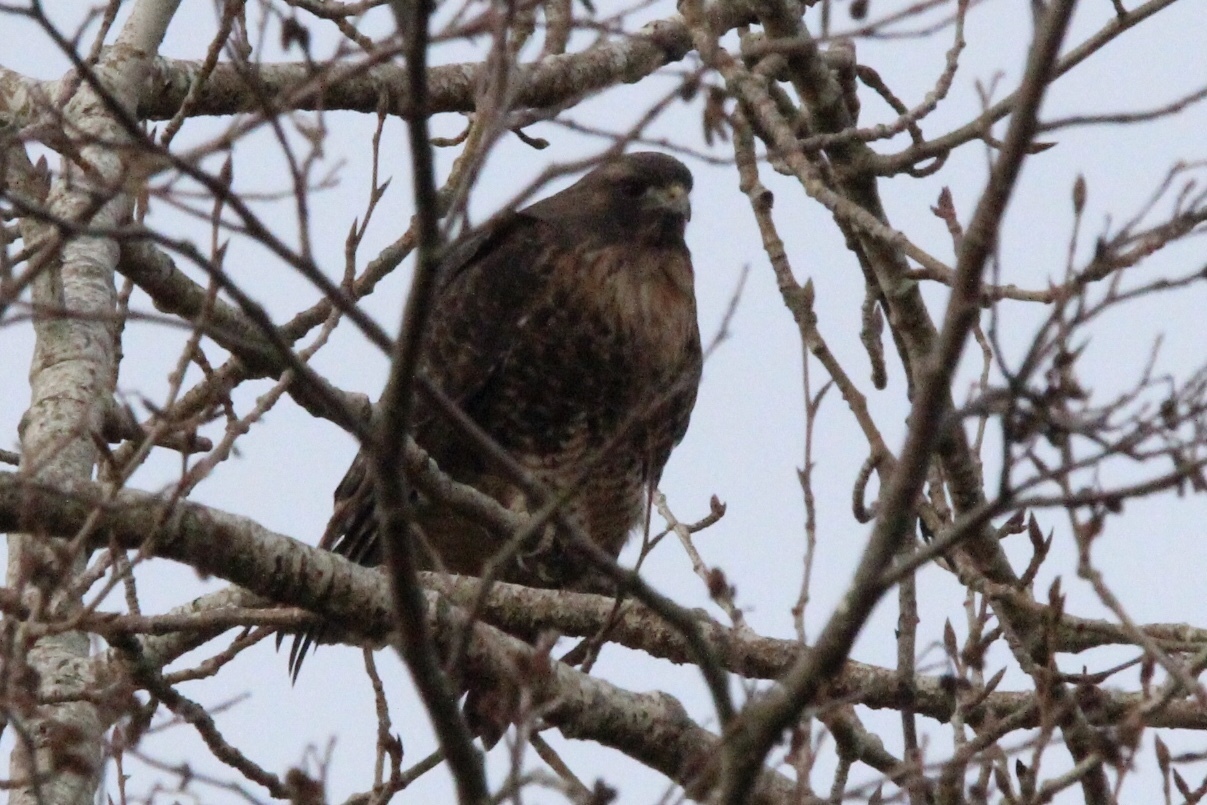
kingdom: Animalia
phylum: Chordata
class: Aves
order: Accipitriformes
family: Accipitridae
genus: Buteo
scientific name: Buteo jamaicensis
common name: Red-tailed hawk
